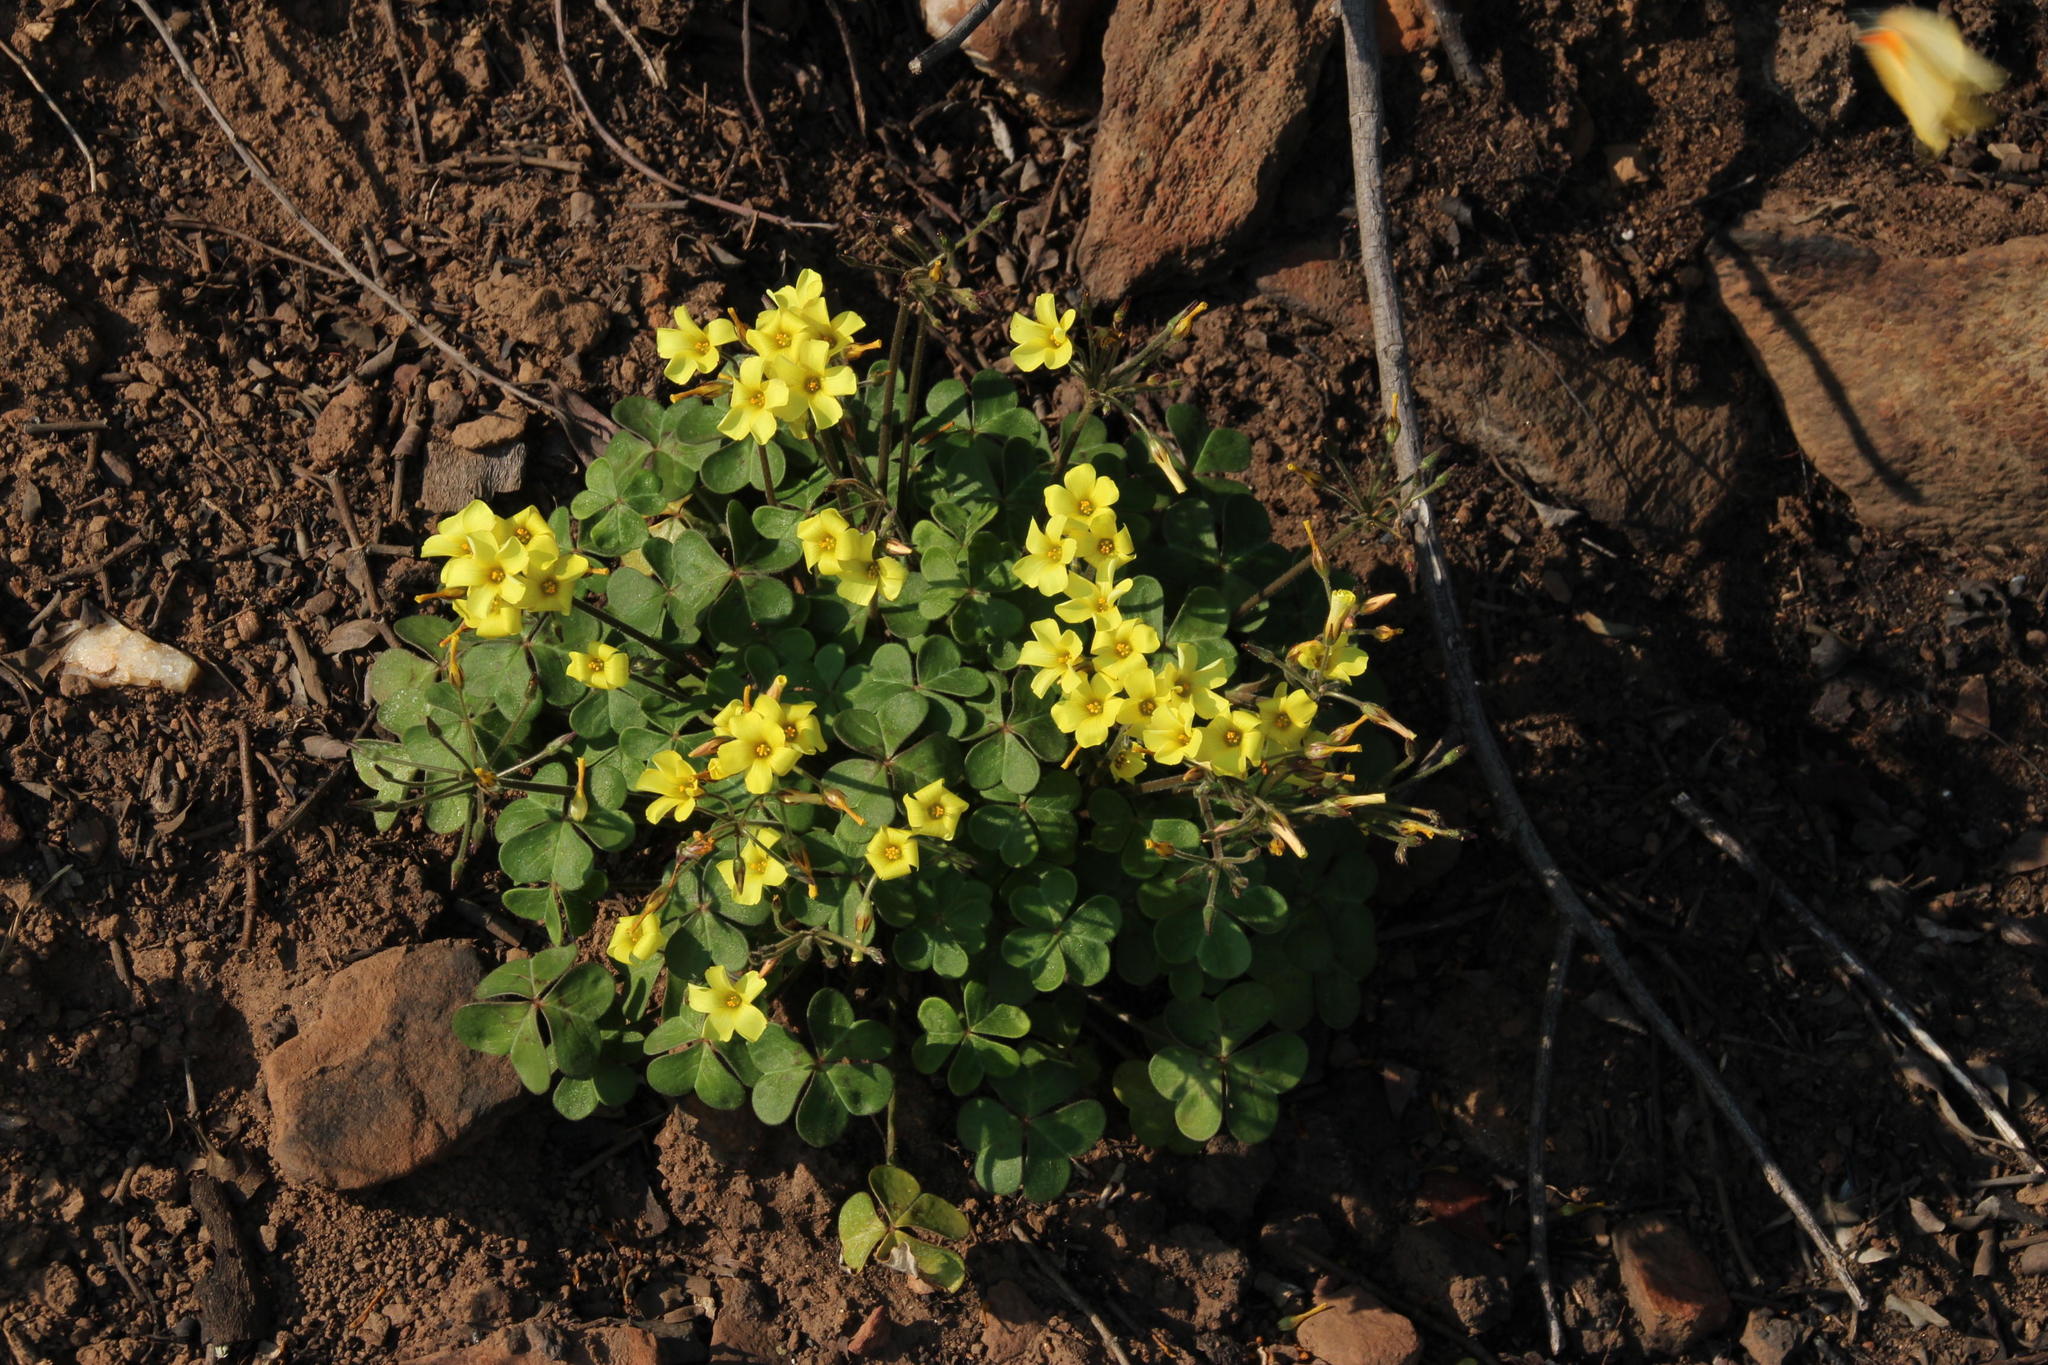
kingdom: Plantae
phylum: Tracheophyta
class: Magnoliopsida
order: Oxalidales
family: Oxalidaceae
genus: Oxalis
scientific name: Oxalis compressa
